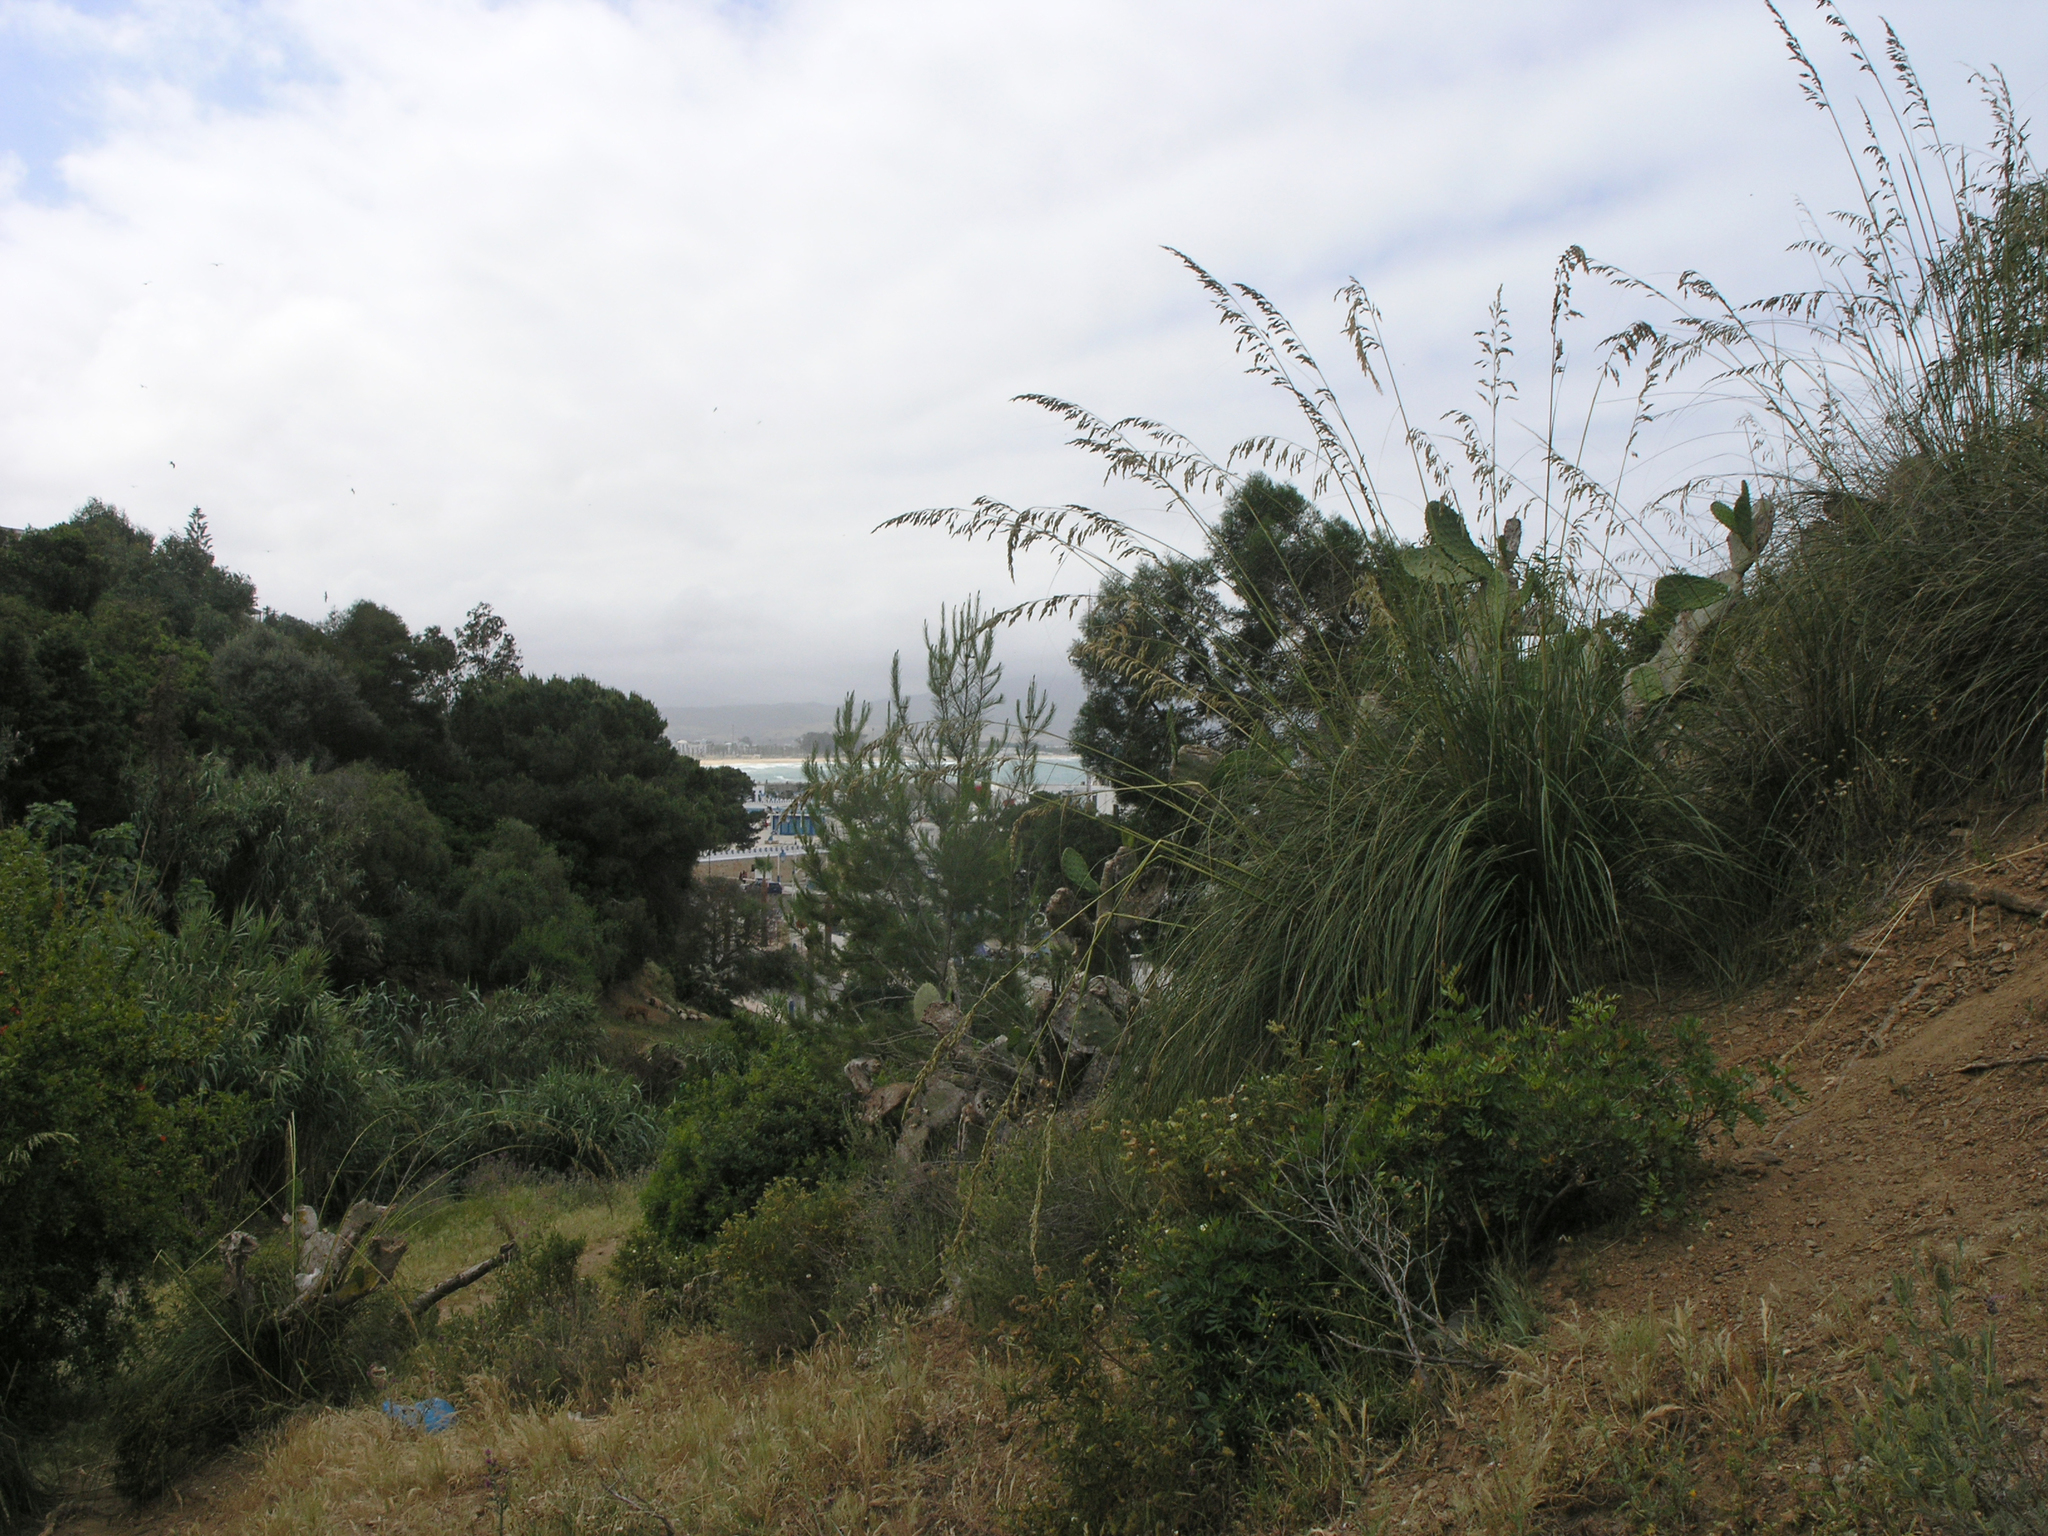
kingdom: Plantae
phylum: Tracheophyta
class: Liliopsida
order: Poales
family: Poaceae
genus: Ampelodesmos
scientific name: Ampelodesmos mauritanicus
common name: Mauritanian grass
